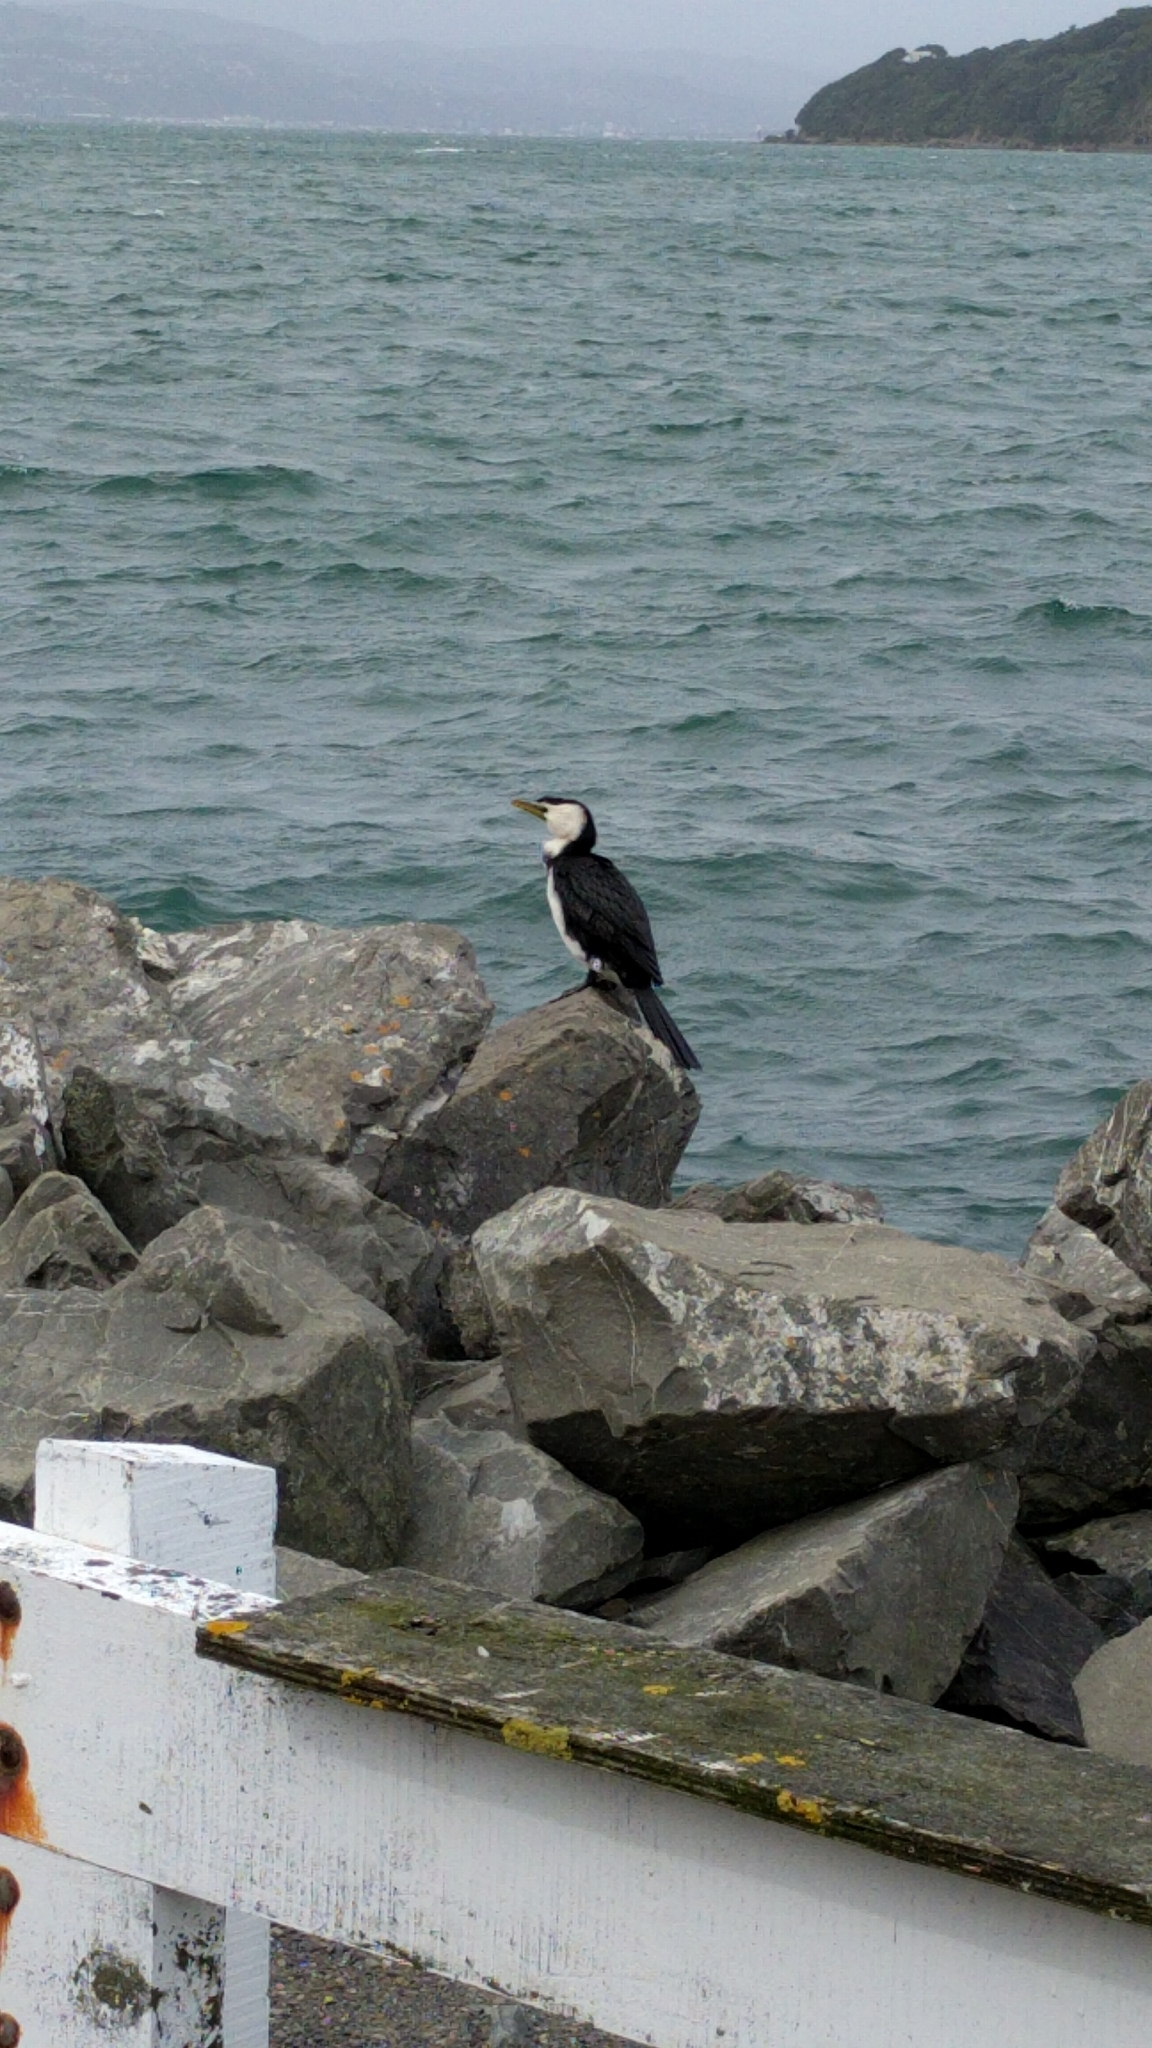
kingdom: Animalia
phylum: Chordata
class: Aves
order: Suliformes
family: Phalacrocoracidae
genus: Microcarbo
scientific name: Microcarbo melanoleucos
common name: Little pied cormorant
